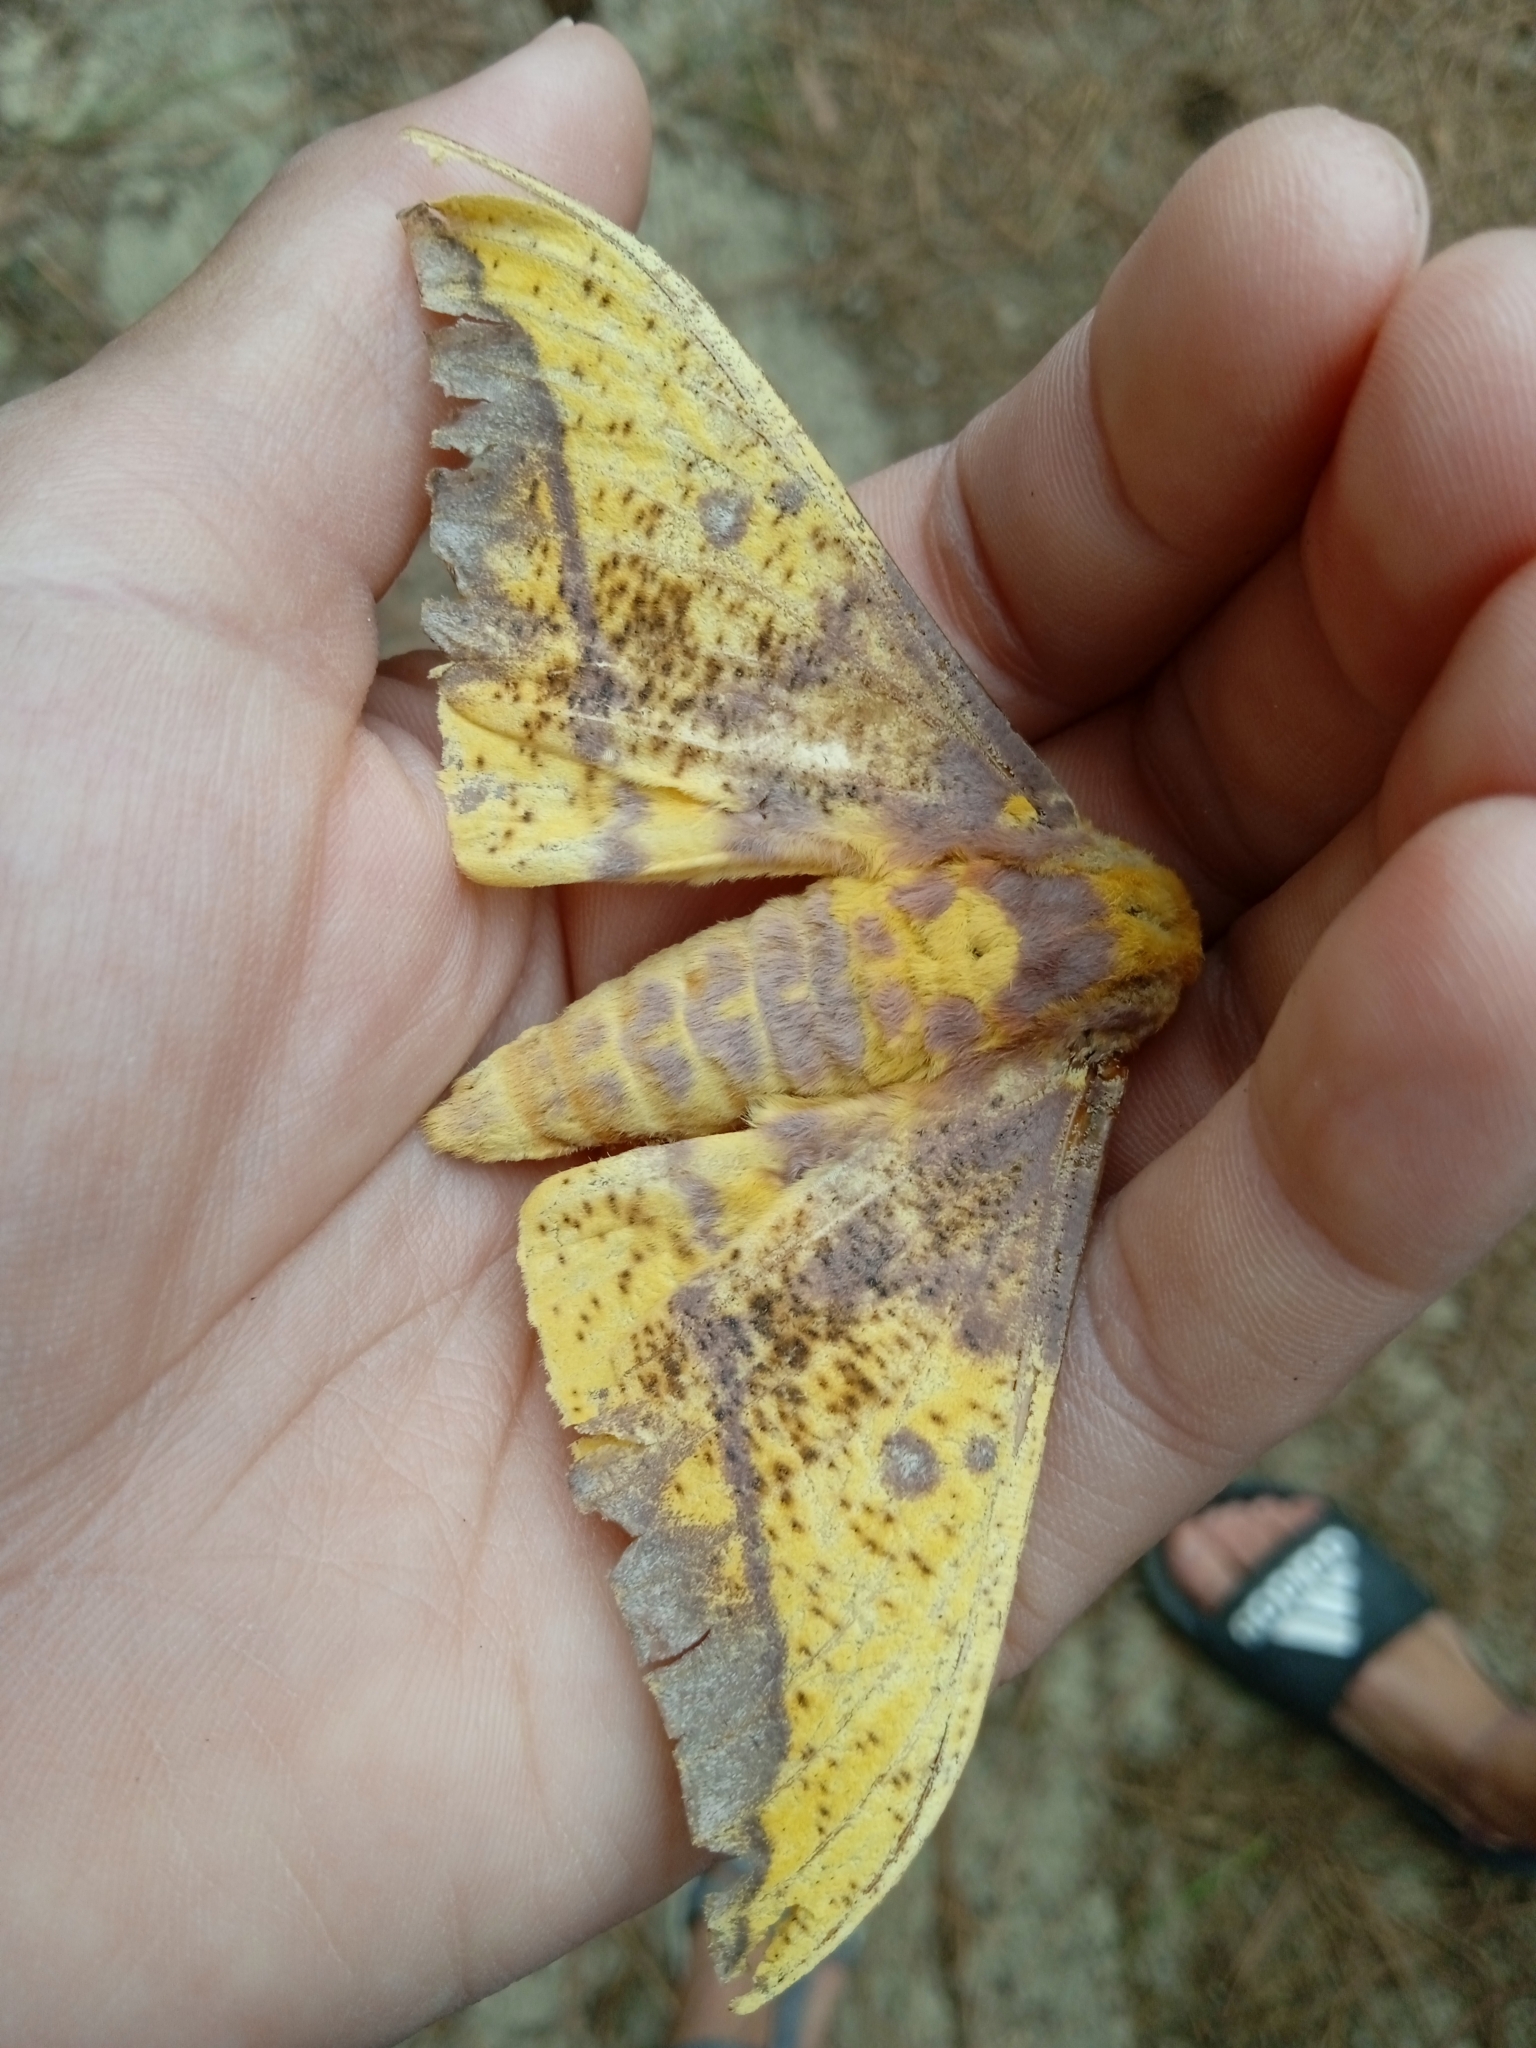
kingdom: Animalia
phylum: Arthropoda
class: Insecta
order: Lepidoptera
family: Saturniidae
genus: Eacles
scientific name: Eacles imperialis
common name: Imperial moth
